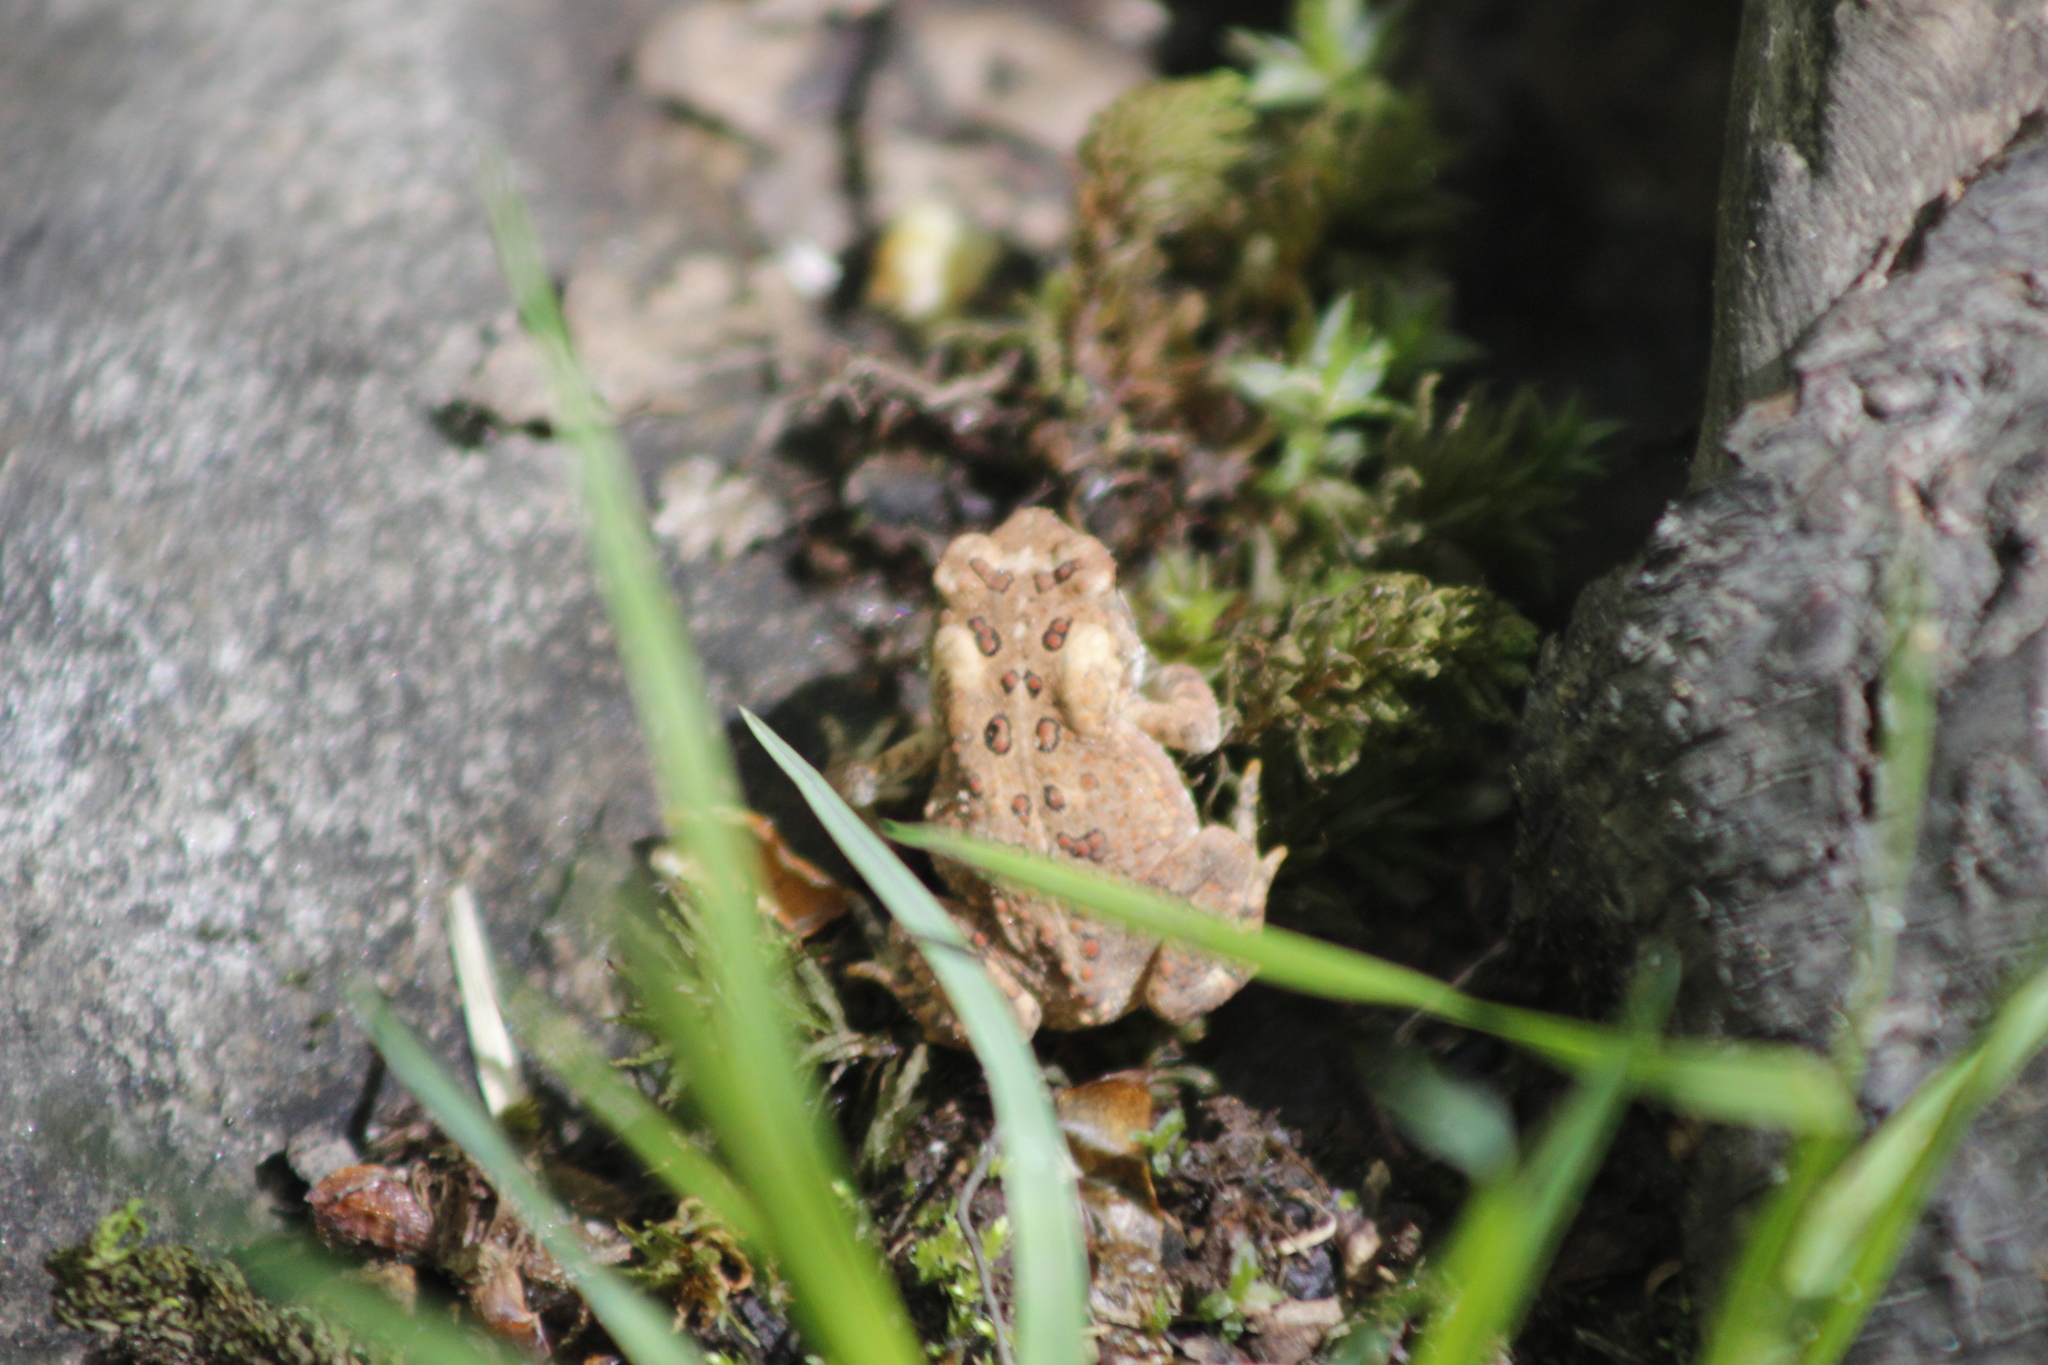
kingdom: Animalia
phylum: Chordata
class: Amphibia
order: Anura
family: Bufonidae
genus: Anaxyrus
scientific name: Anaxyrus americanus
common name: American toad
